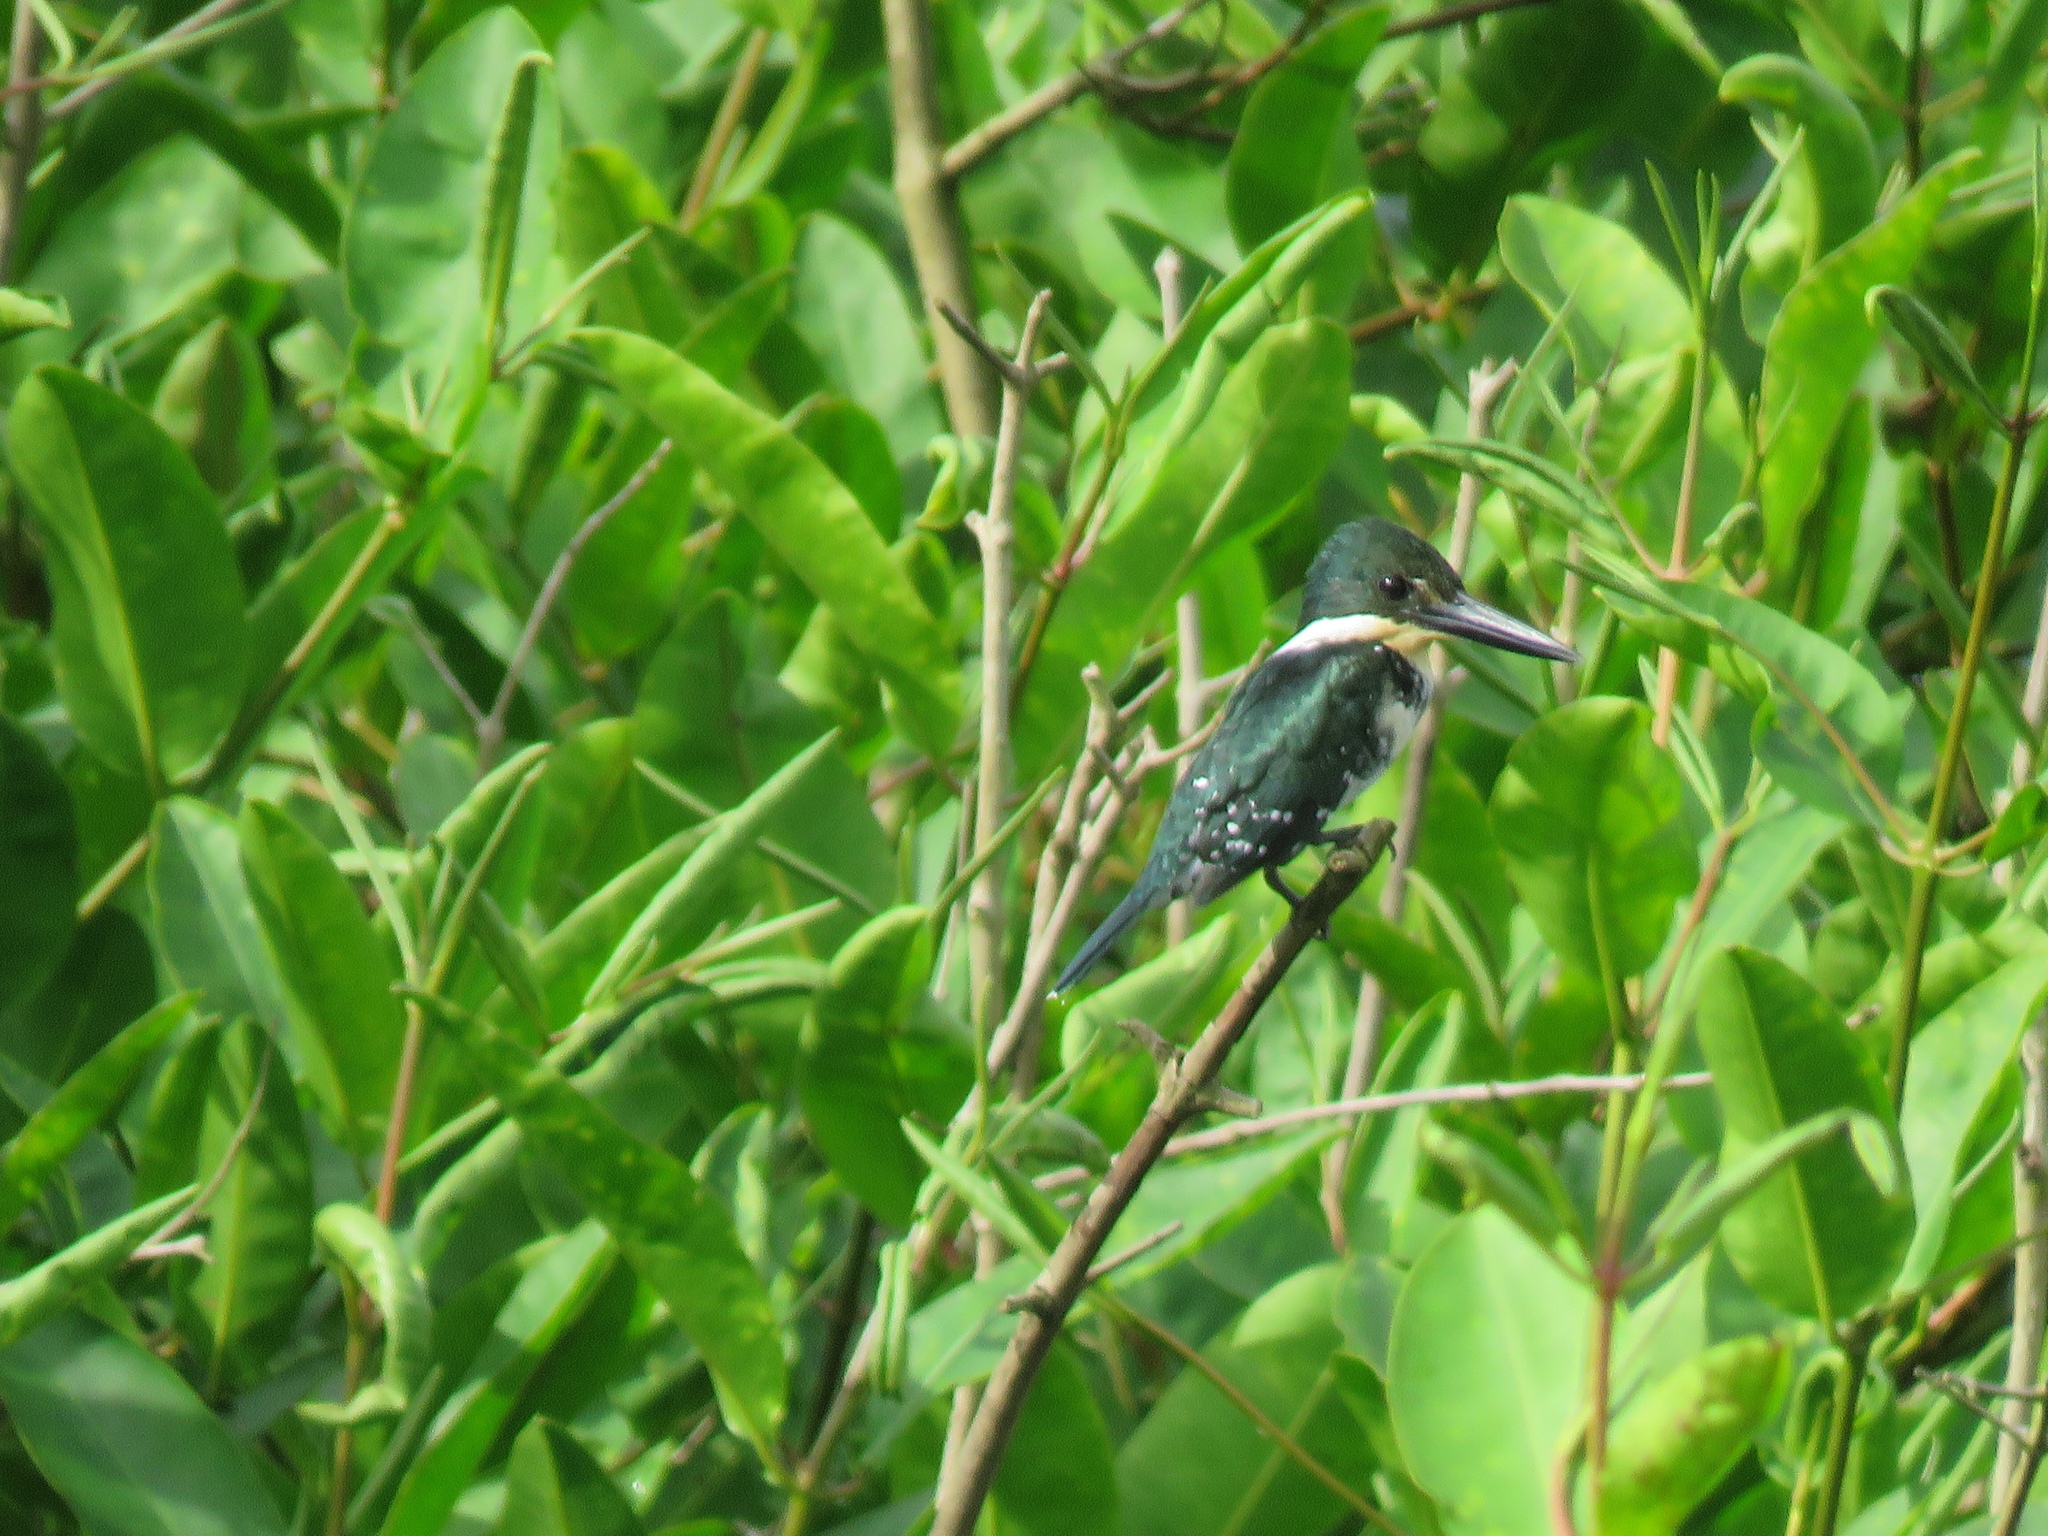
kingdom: Animalia
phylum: Chordata
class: Aves
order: Coraciiformes
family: Alcedinidae
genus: Chloroceryle
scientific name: Chloroceryle americana
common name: Green kingfisher
